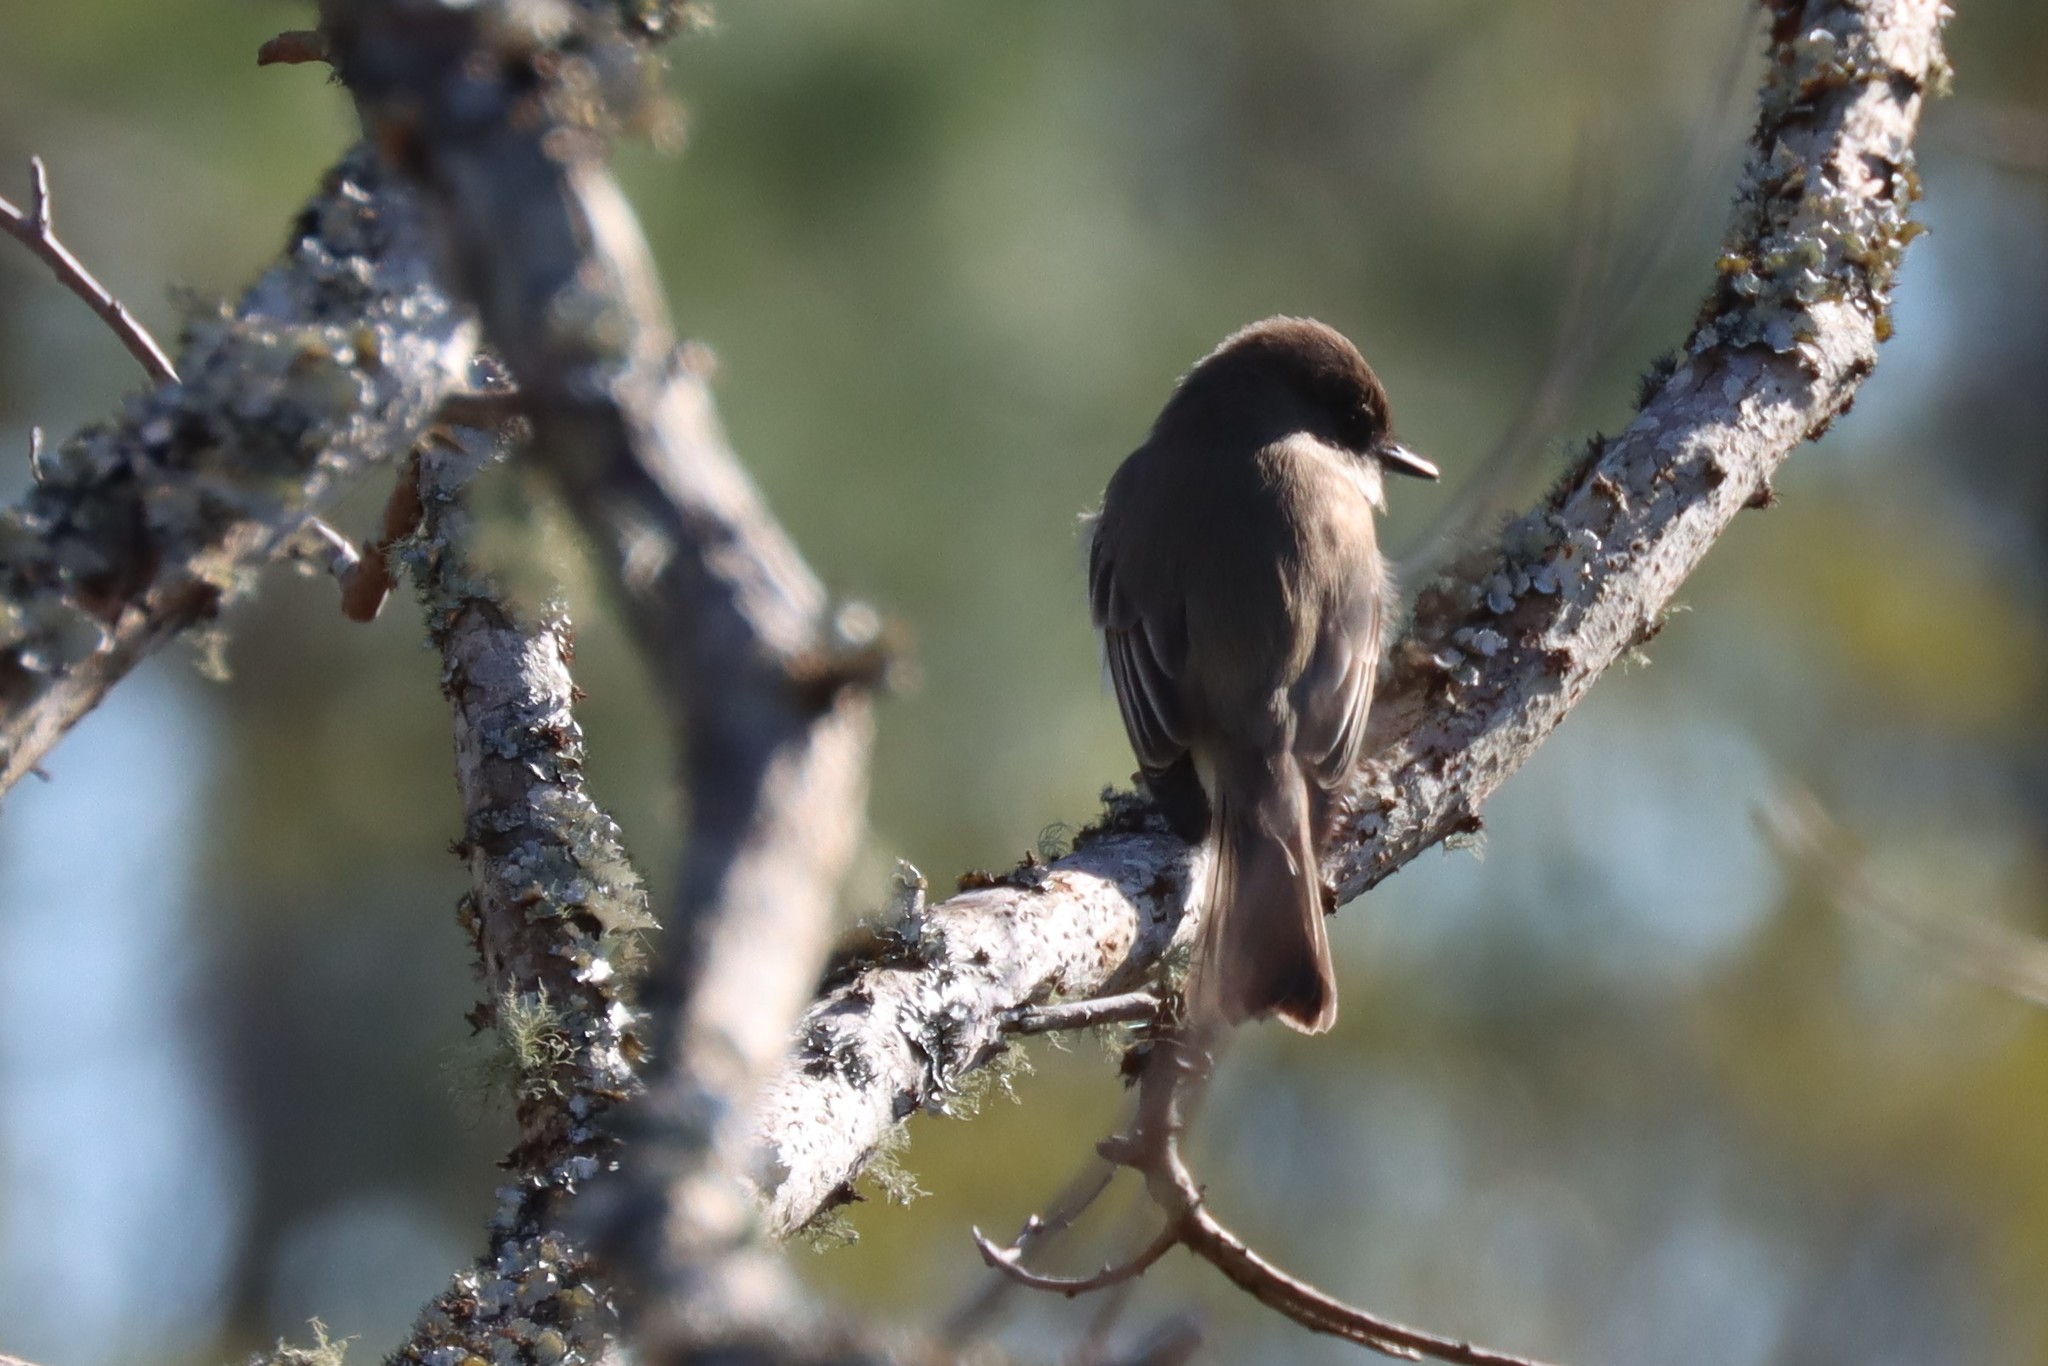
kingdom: Animalia
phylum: Chordata
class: Aves
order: Passeriformes
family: Tyrannidae
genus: Sayornis
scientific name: Sayornis phoebe
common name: Eastern phoebe
